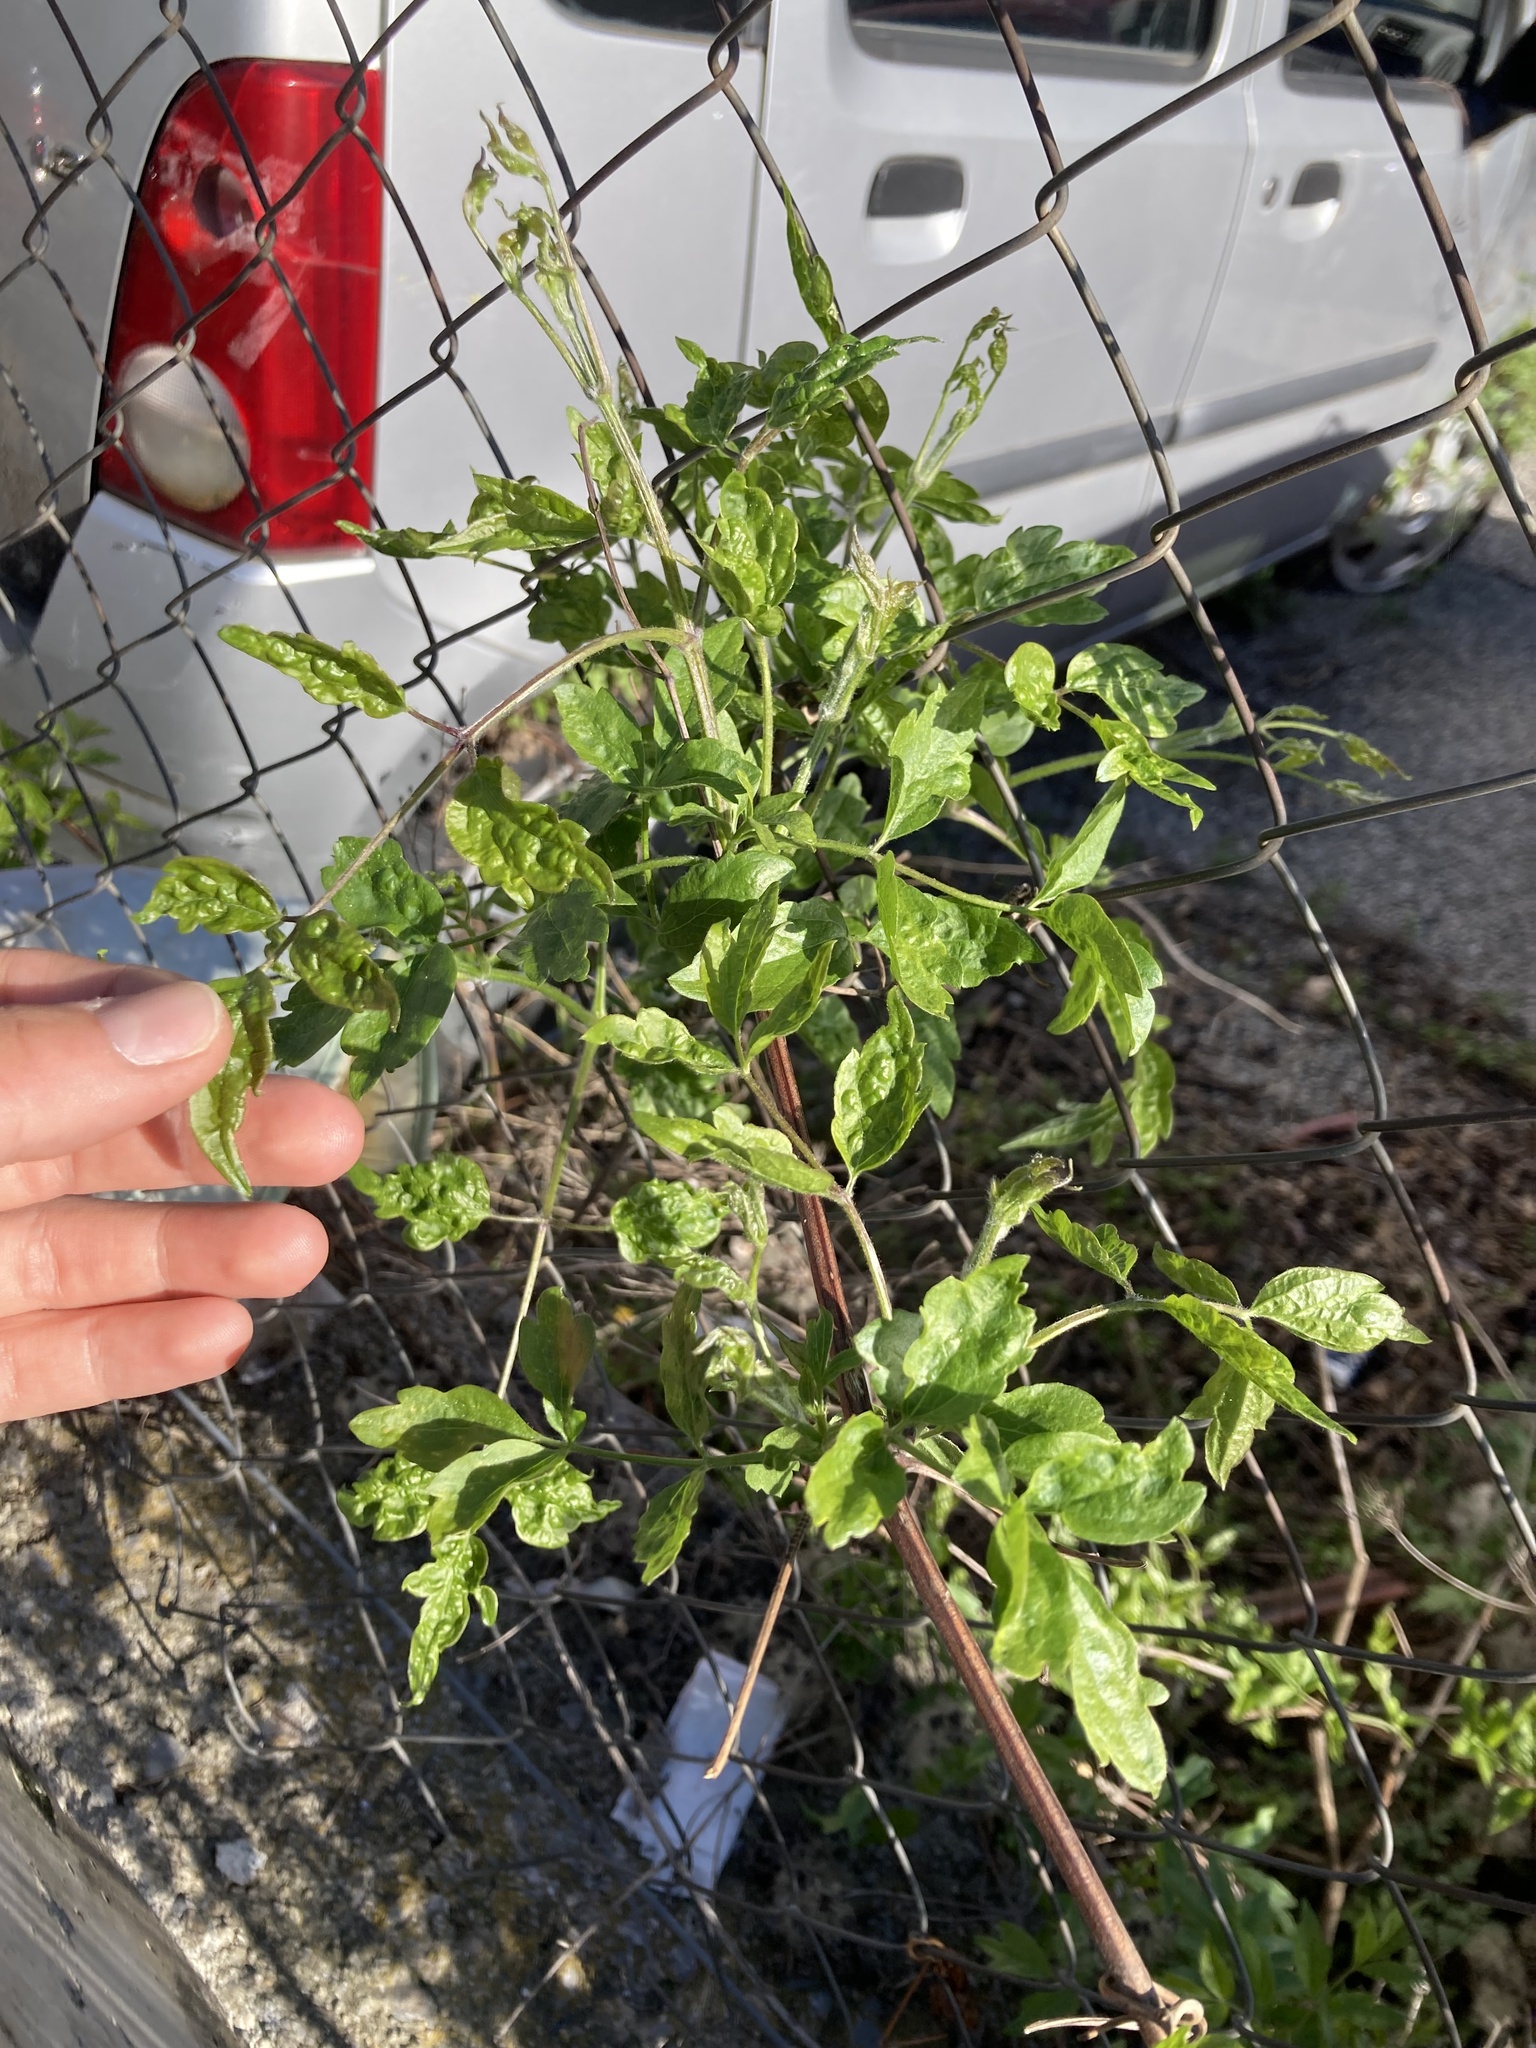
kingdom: Plantae
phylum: Tracheophyta
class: Magnoliopsida
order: Ranunculales
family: Ranunculaceae
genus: Clematis
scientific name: Clematis vitalba
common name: Evergreen clematis
